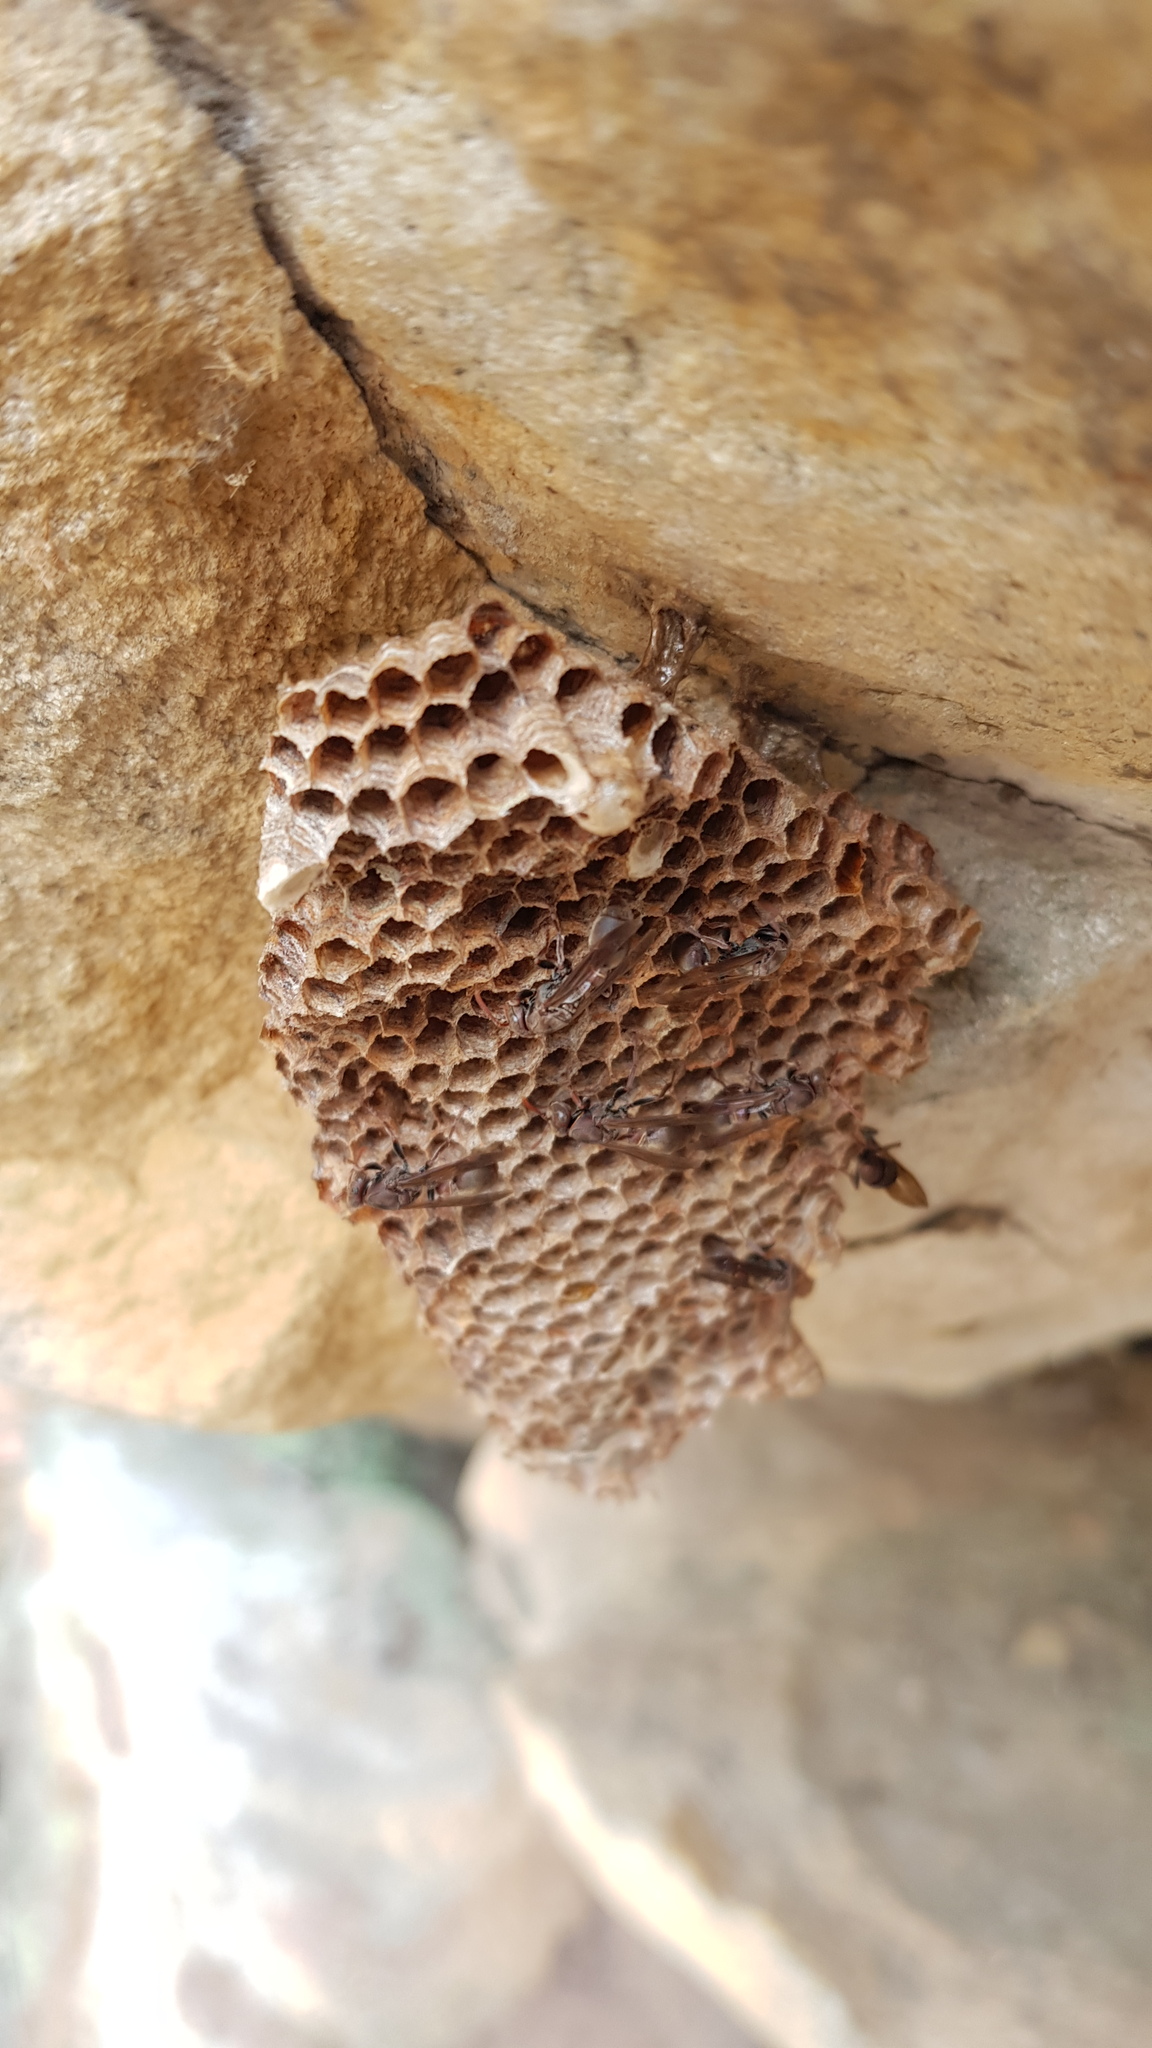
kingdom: Animalia
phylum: Arthropoda
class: Insecta
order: Hymenoptera
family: Vespidae
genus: Ropalidia
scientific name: Ropalidia plebeiana
